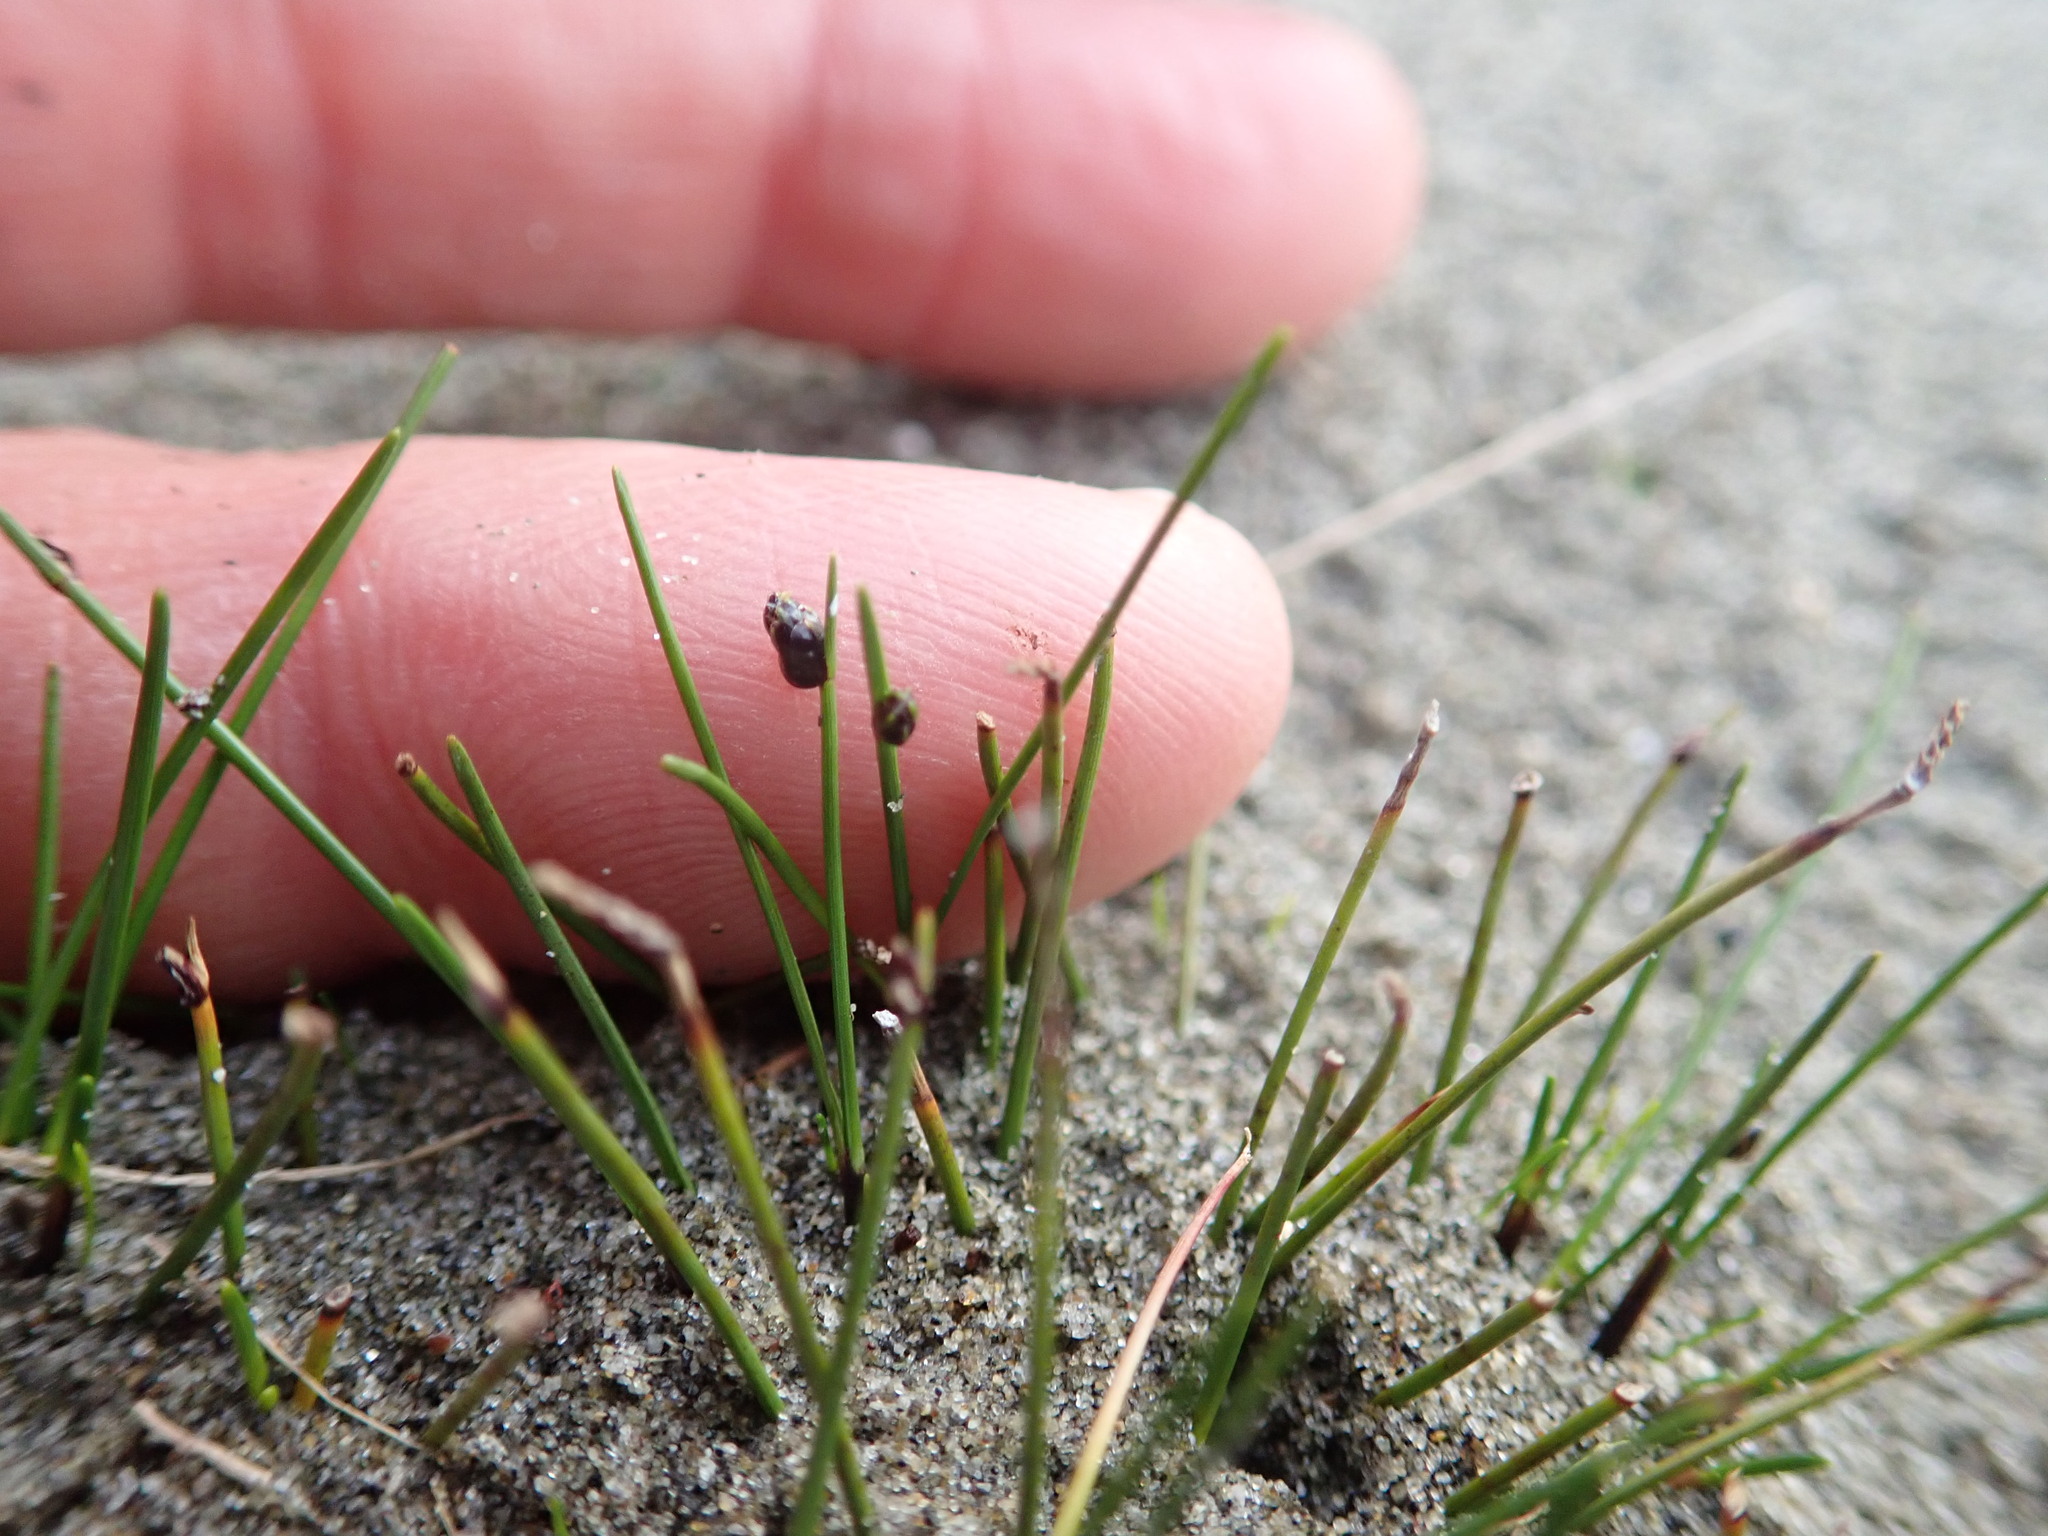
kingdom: Plantae
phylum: Tracheophyta
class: Liliopsida
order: Poales
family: Cyperaceae
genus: Isolepis
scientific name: Isolepis cernua
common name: Slender club-rush
